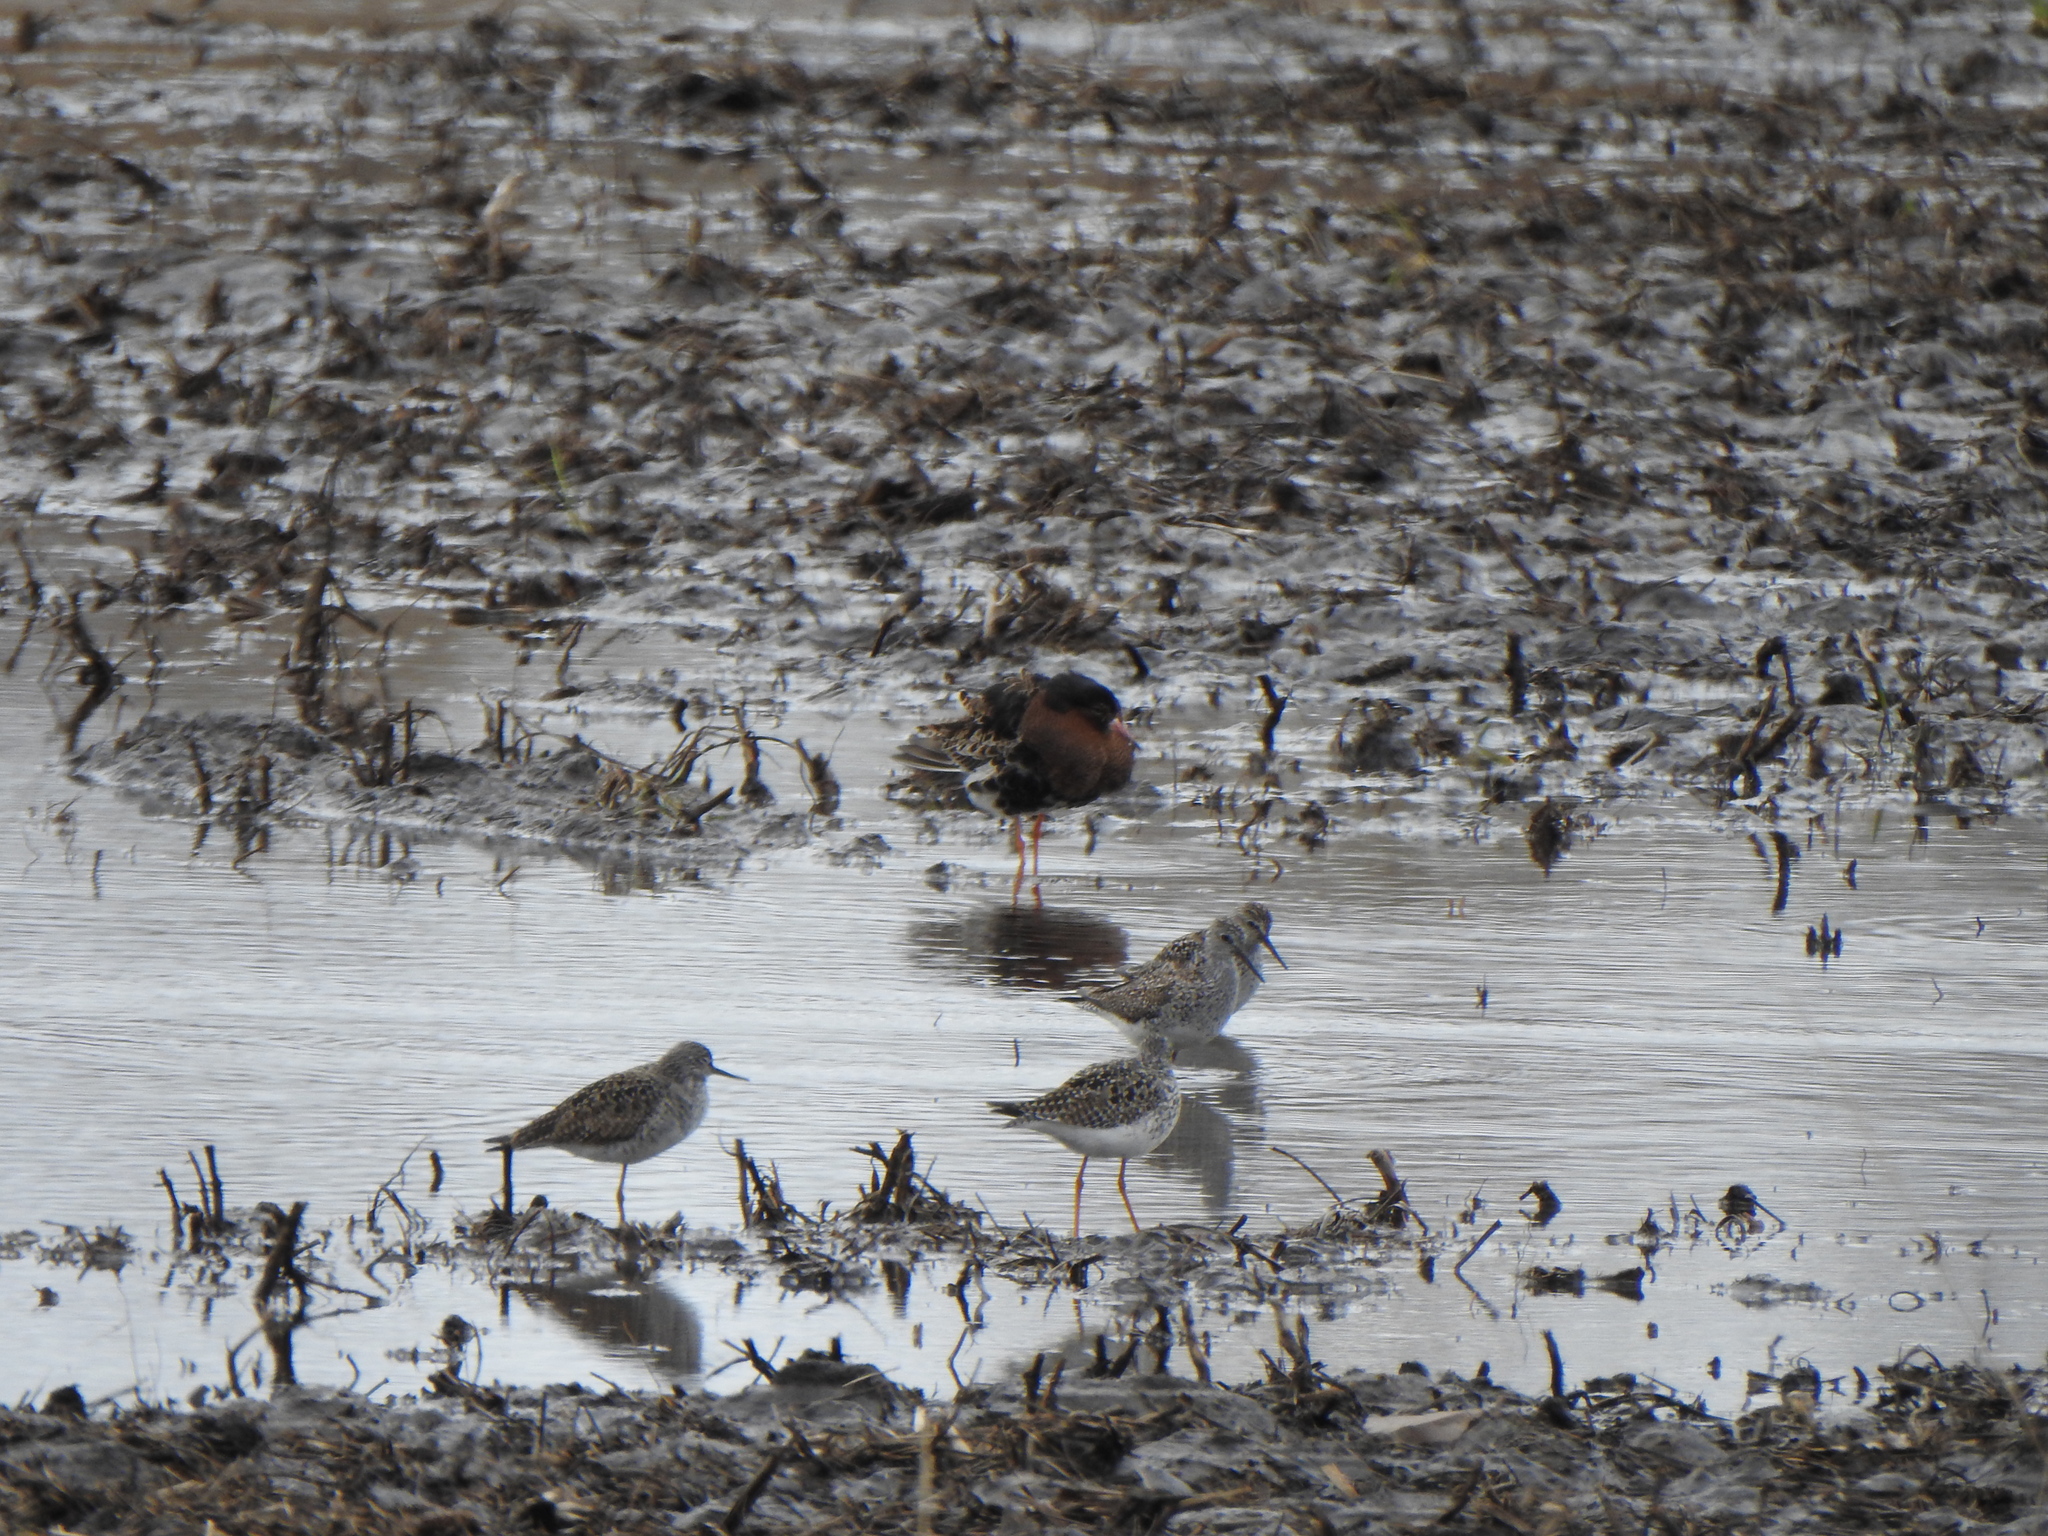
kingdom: Animalia
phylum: Chordata
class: Aves
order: Charadriiformes
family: Scolopacidae
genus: Calidris
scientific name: Calidris pugnax
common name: Ruff
